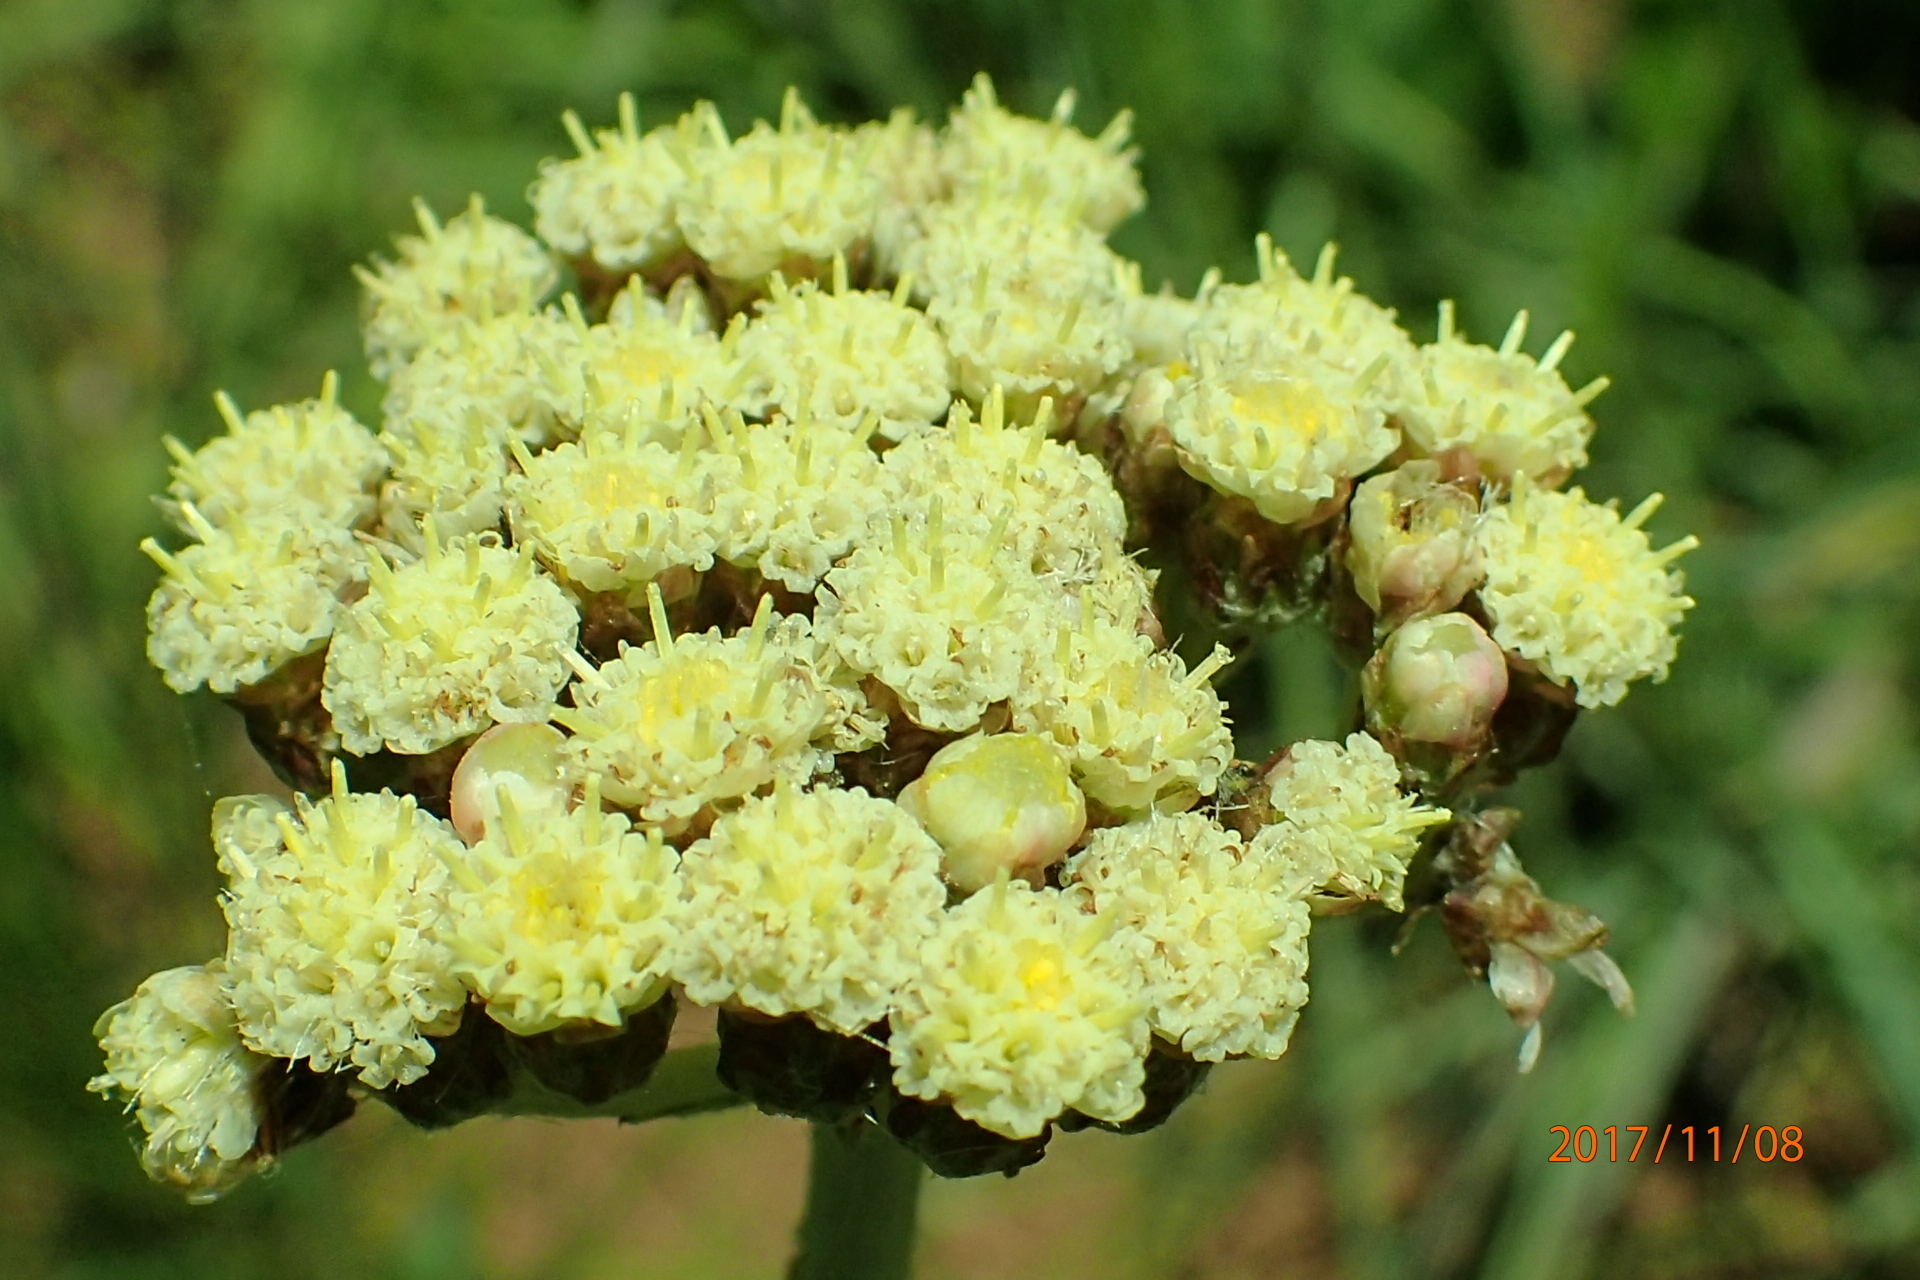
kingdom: Plantae
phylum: Tracheophyta
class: Magnoliopsida
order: Asterales
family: Asteraceae
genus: Helichrysum
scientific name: Helichrysum nudifolium
